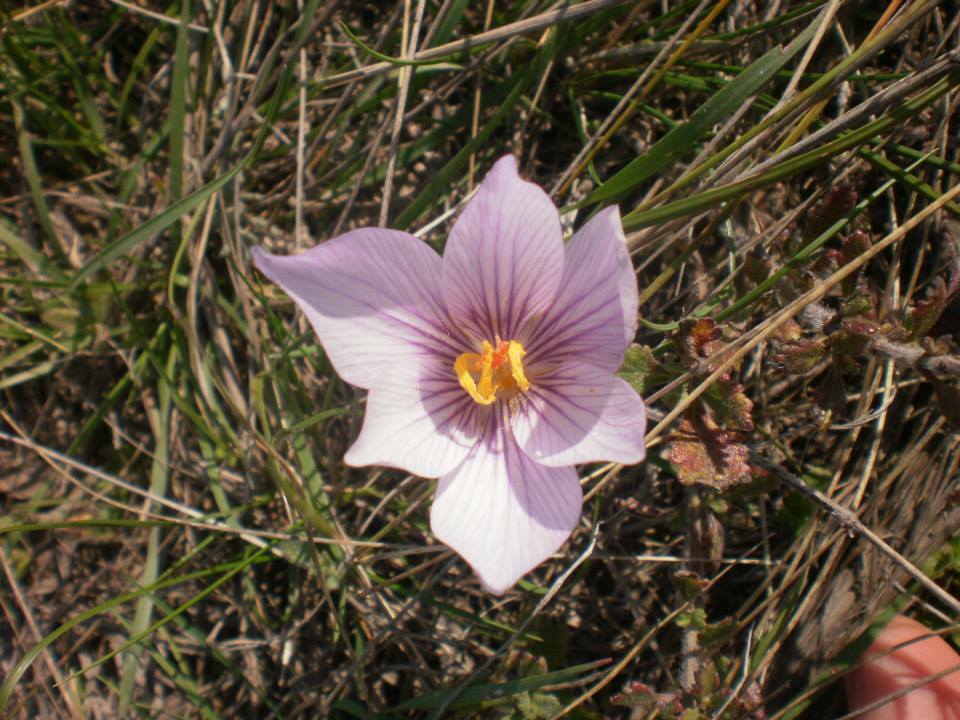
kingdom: Plantae
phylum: Tracheophyta
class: Liliopsida
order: Asparagales
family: Iridaceae
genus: Crocus
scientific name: Crocus pallasii
